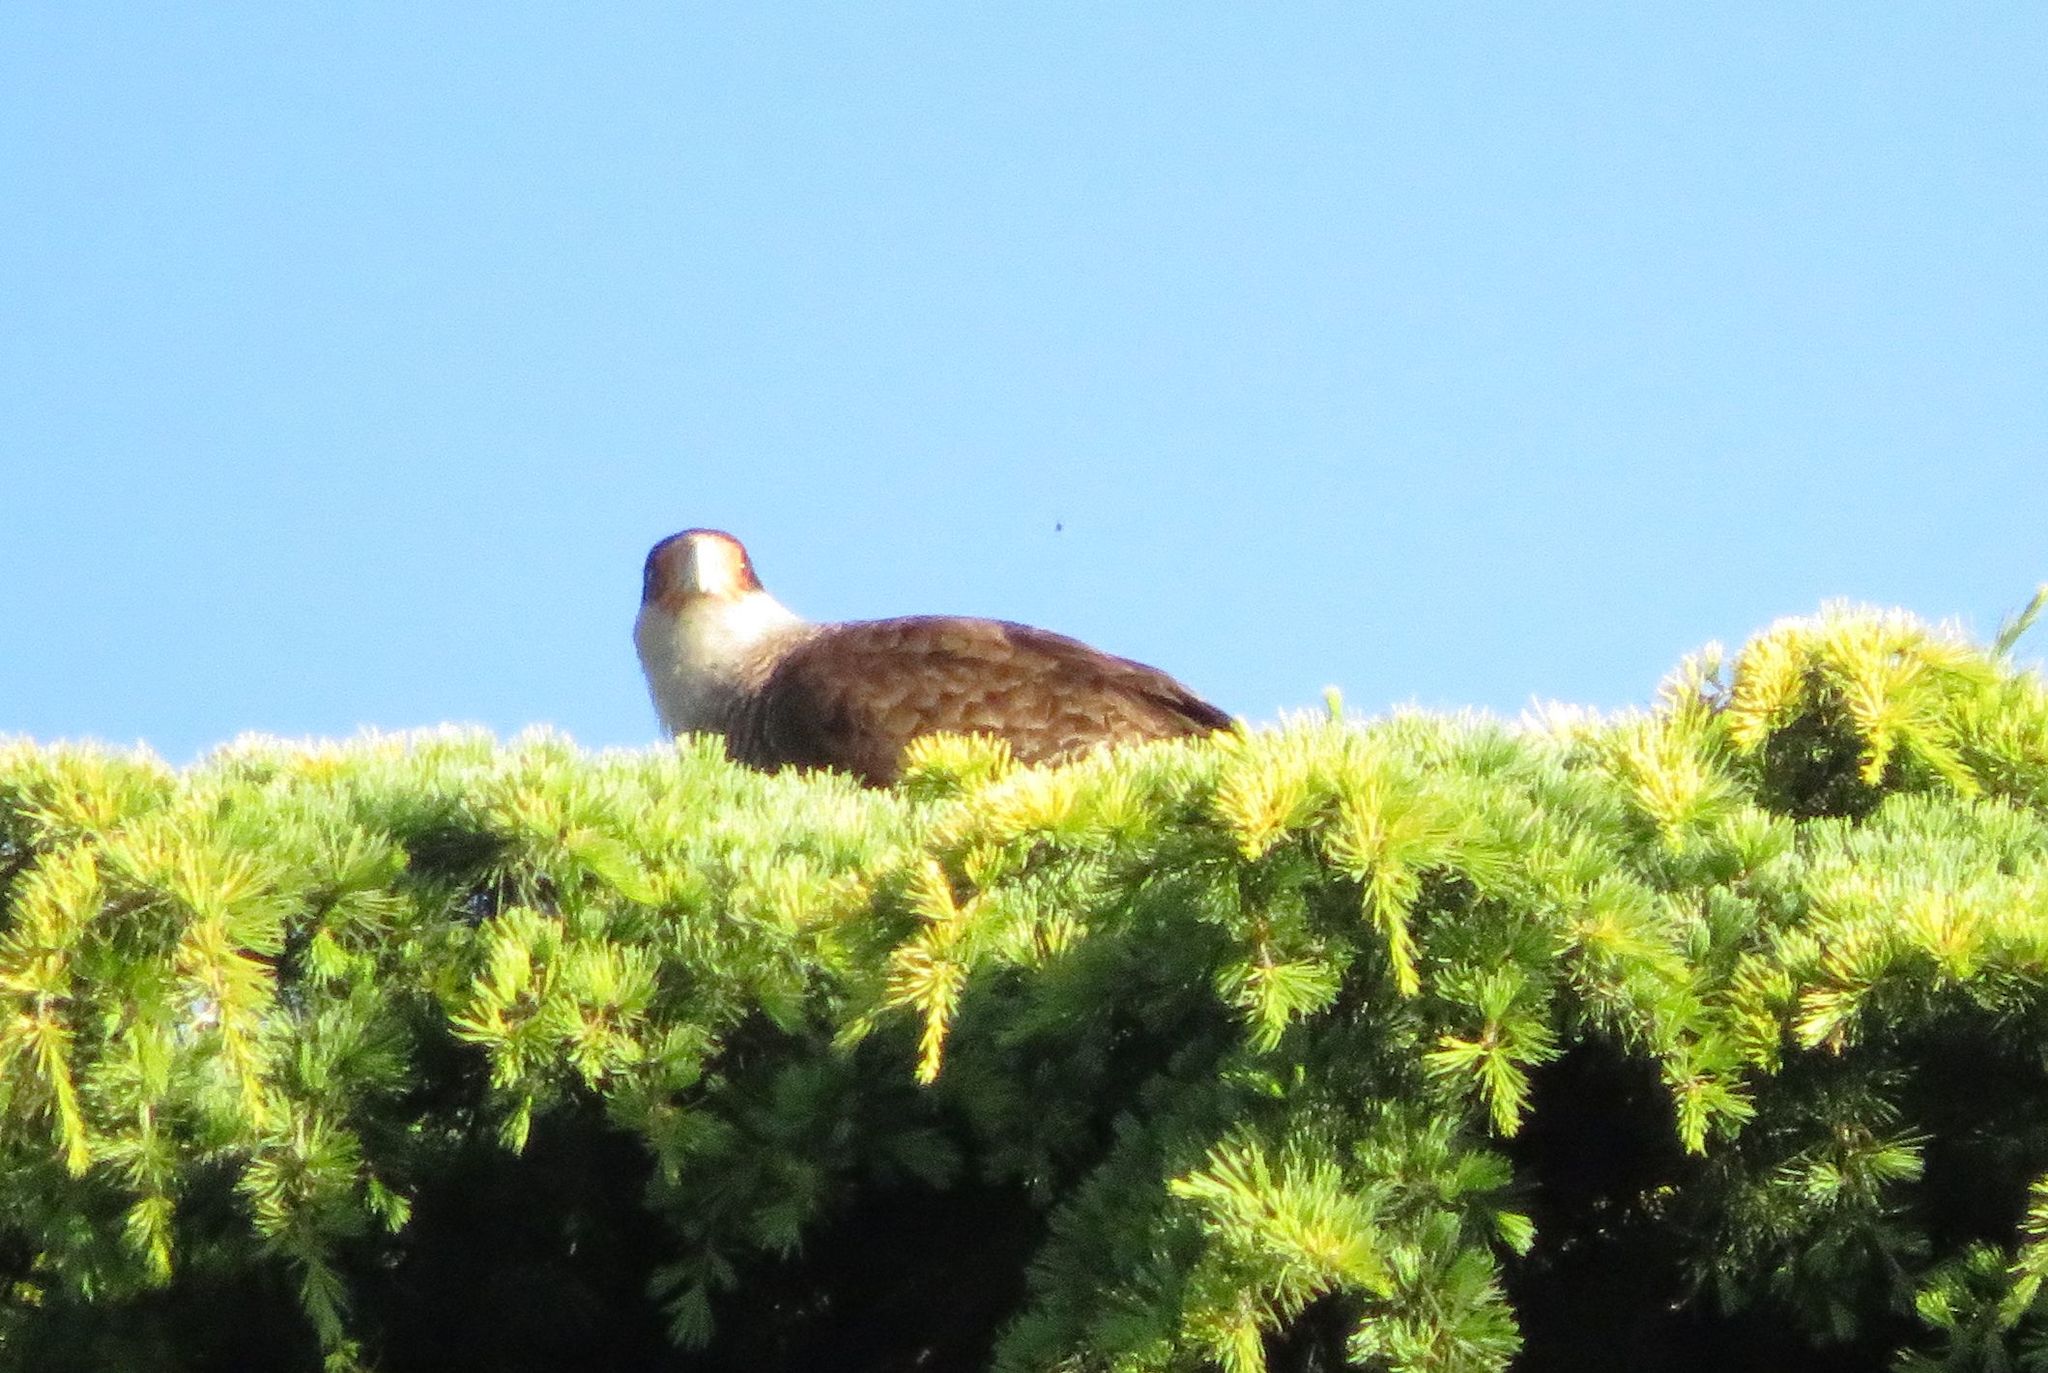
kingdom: Animalia
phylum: Chordata
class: Aves
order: Falconiformes
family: Falconidae
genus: Caracara
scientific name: Caracara plancus
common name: Southern caracara
